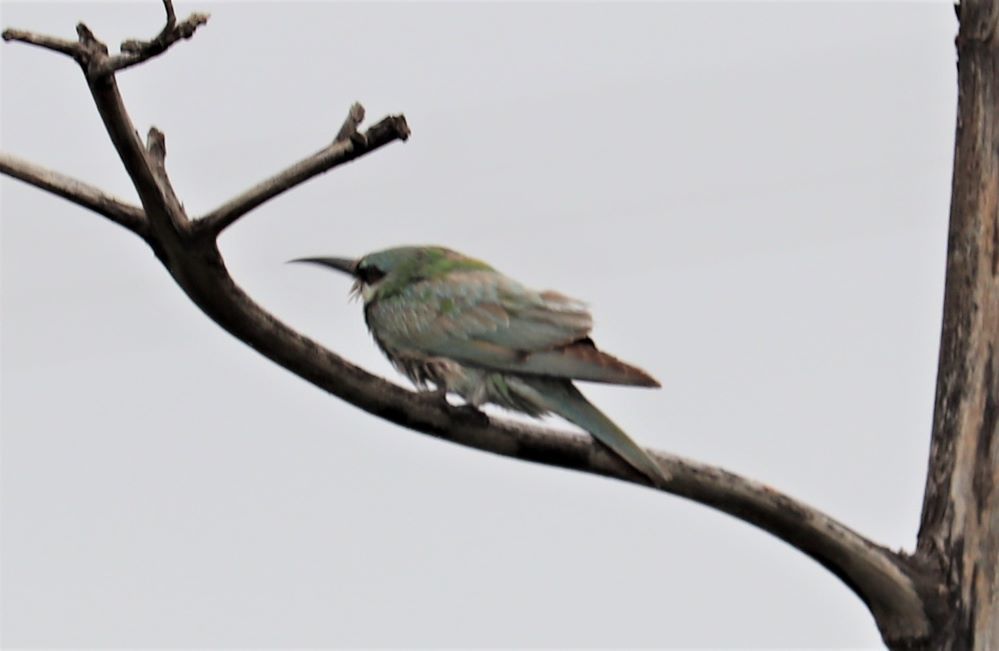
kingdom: Animalia
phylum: Chordata
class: Aves
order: Coraciiformes
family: Meropidae
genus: Merops
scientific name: Merops persicus
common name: Blue-cheeked bee-eater
